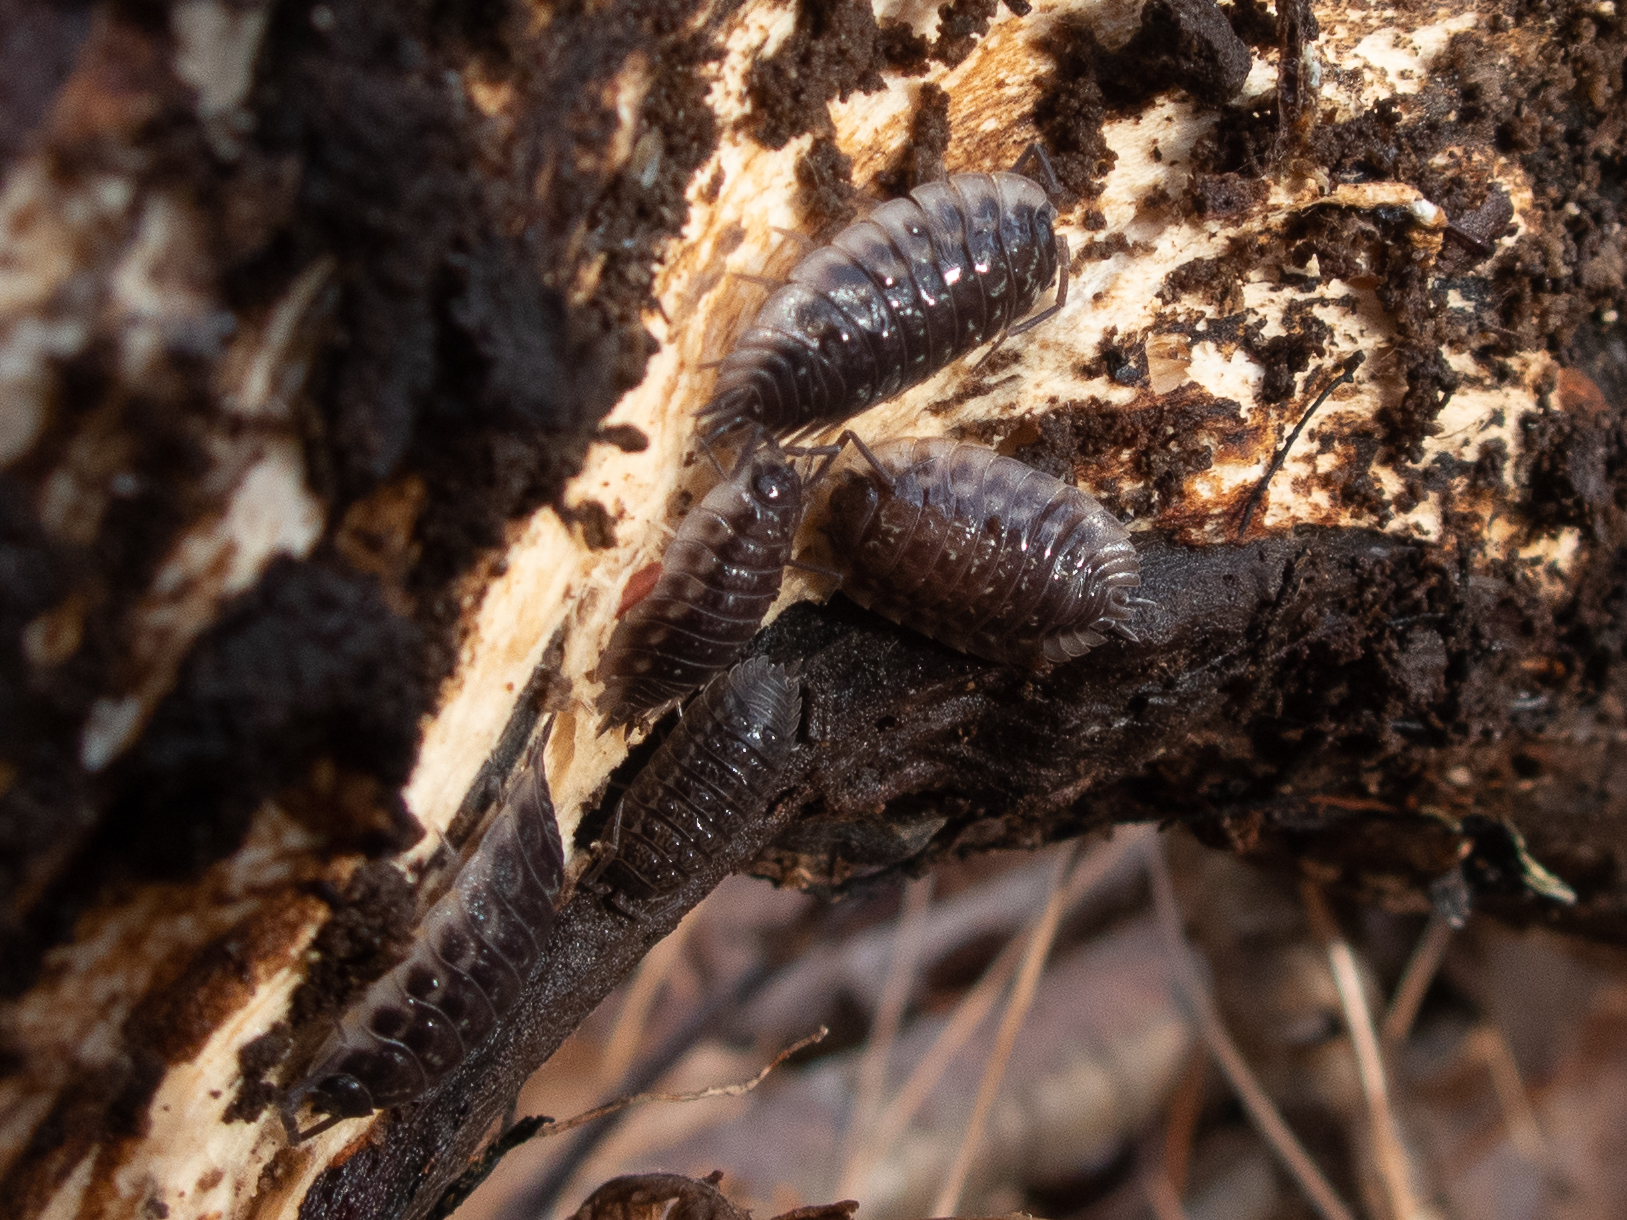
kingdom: Animalia
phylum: Arthropoda
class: Malacostraca
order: Isopoda
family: Oniscidae
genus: Oniscus
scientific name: Oniscus asellus
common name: Common shiny woodlouse
